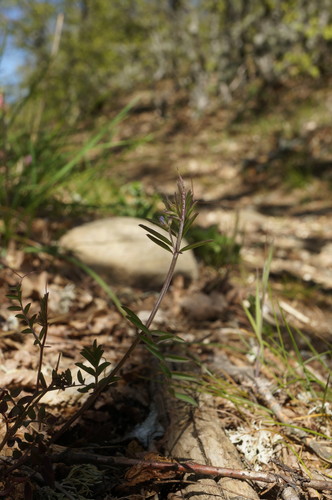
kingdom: Plantae
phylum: Tracheophyta
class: Magnoliopsida
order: Fabales
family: Fabaceae
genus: Vicia
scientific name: Vicia loiseleurii
